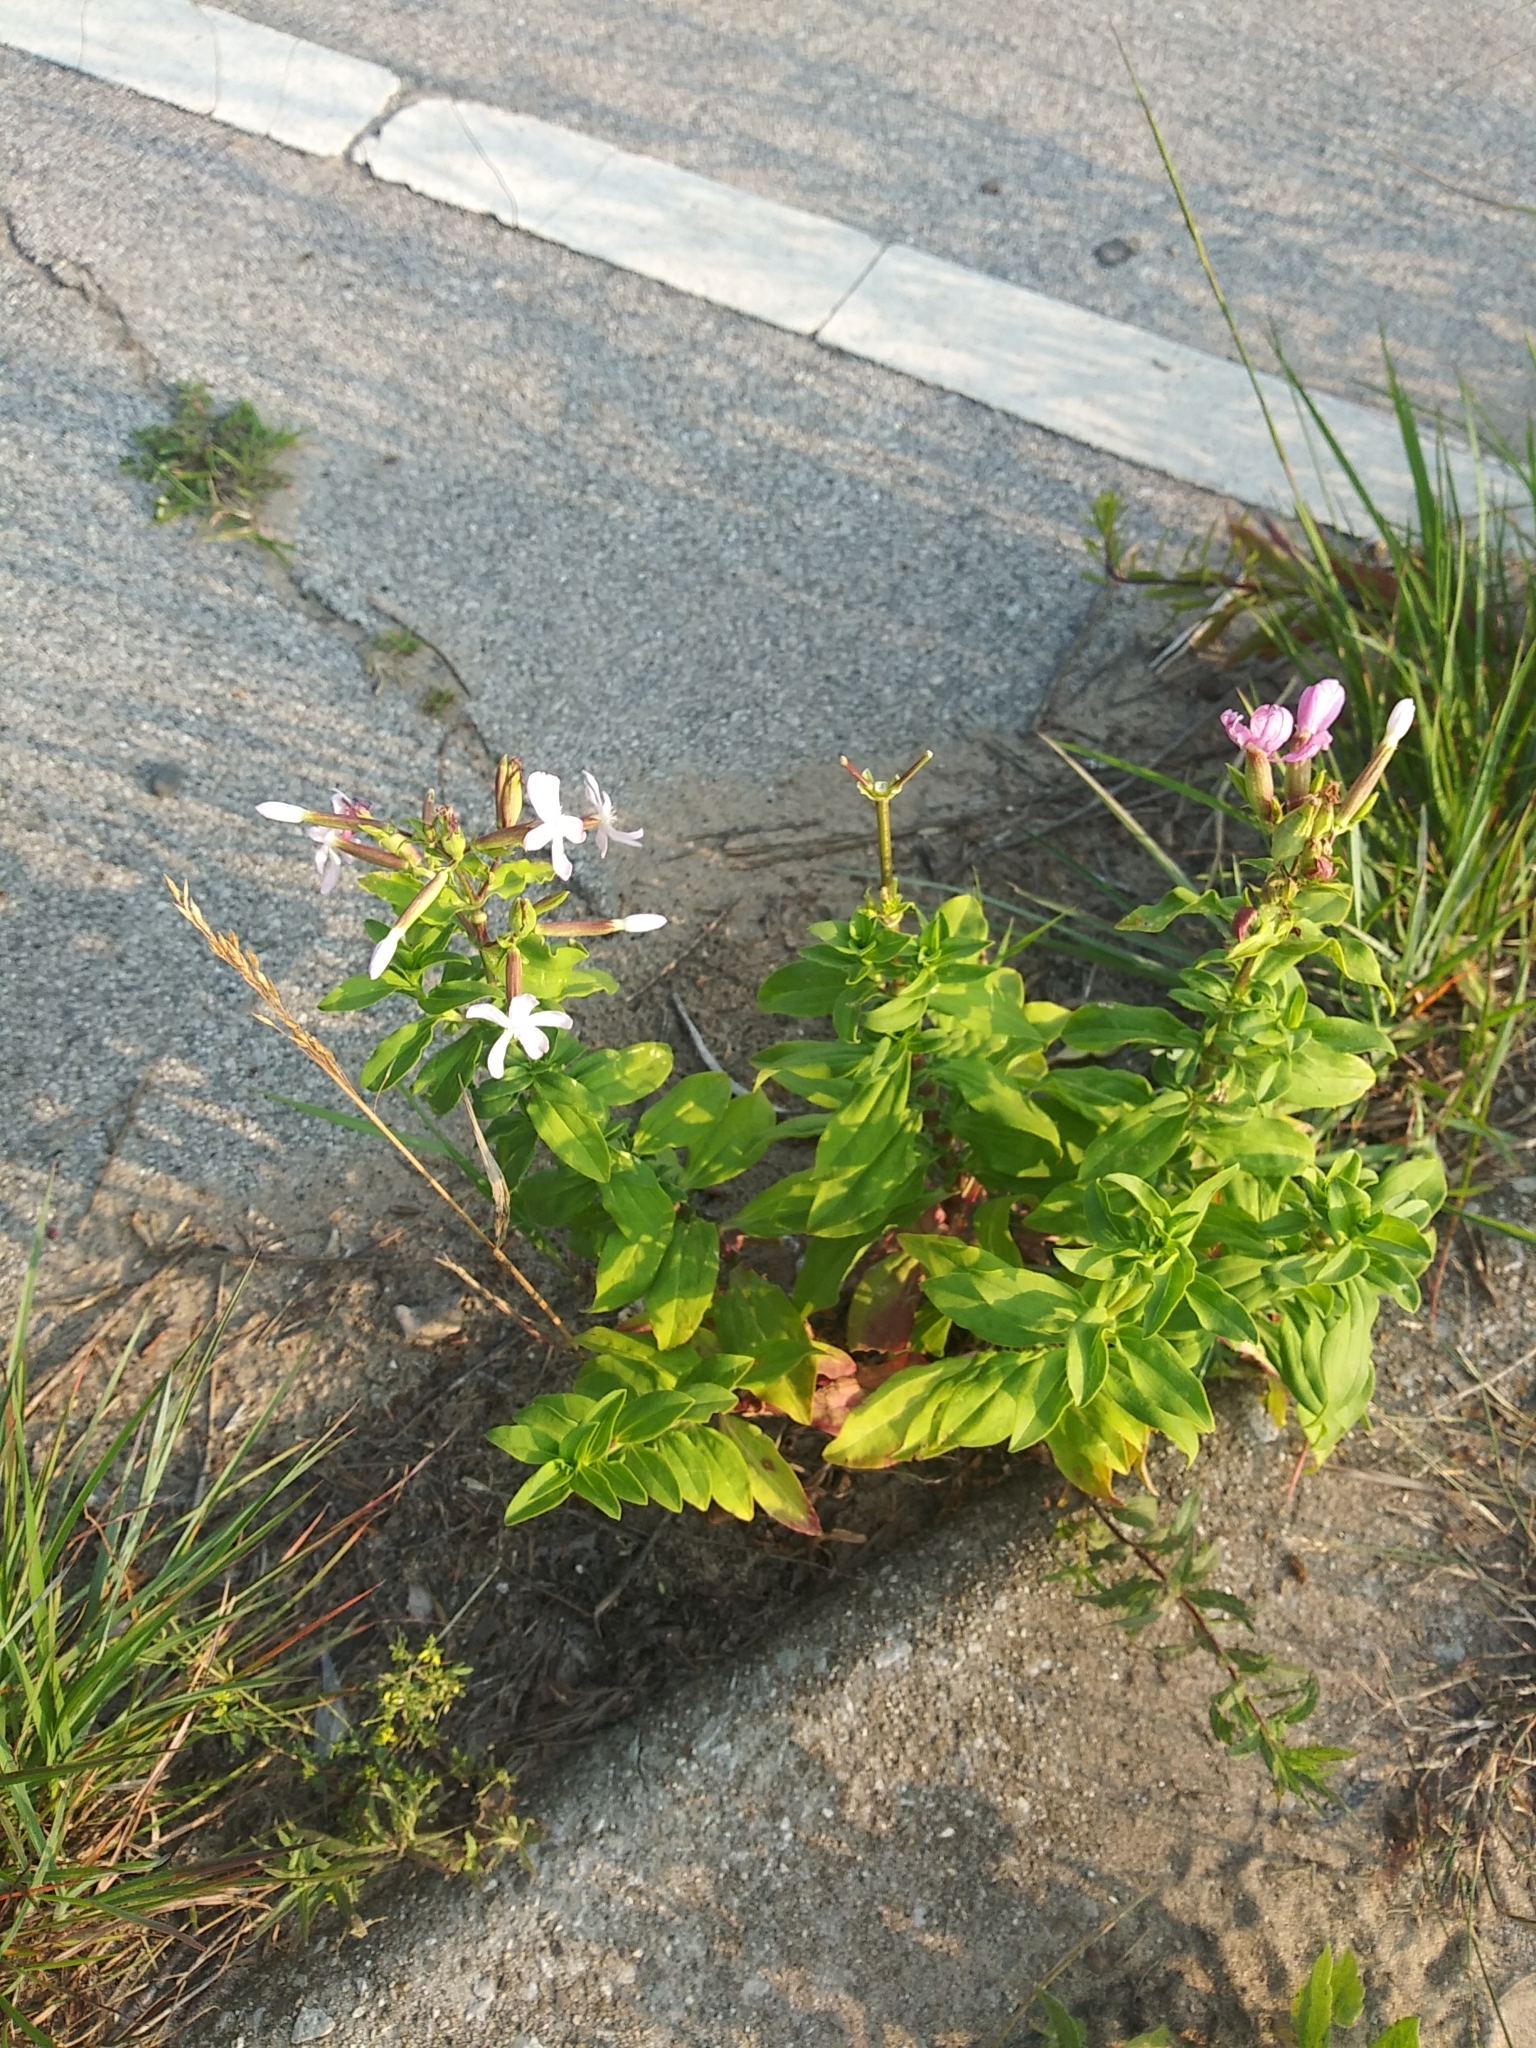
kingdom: Plantae
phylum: Tracheophyta
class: Magnoliopsida
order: Caryophyllales
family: Caryophyllaceae
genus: Saponaria
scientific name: Saponaria officinalis
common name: Soapwort
